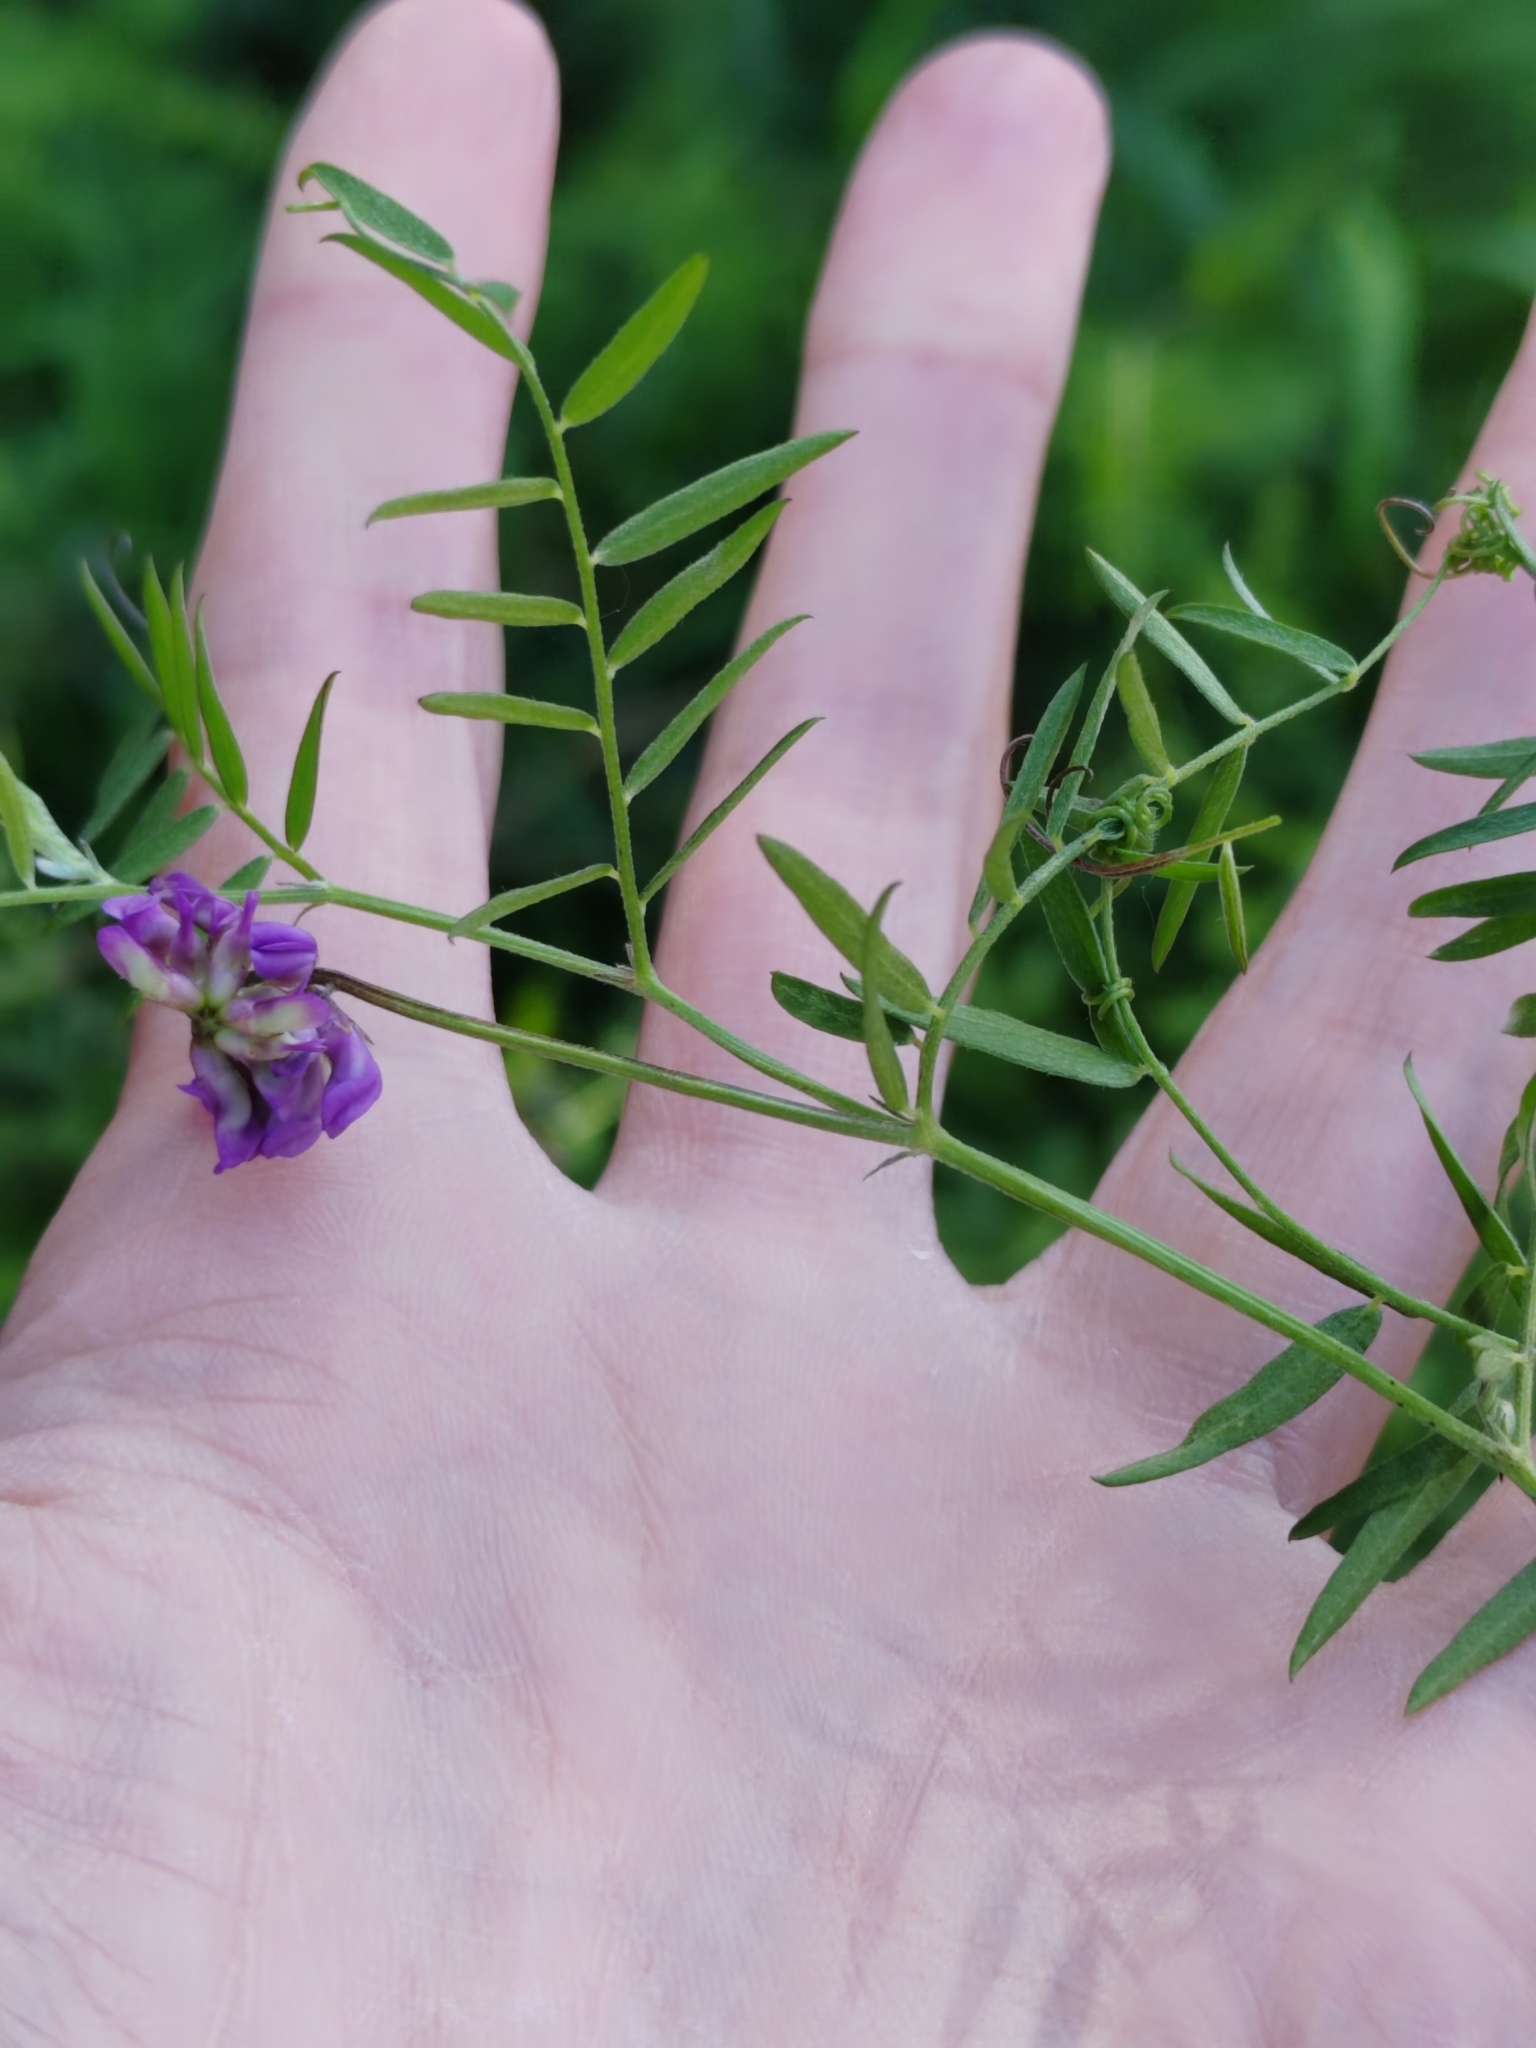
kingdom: Plantae
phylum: Tracheophyta
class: Magnoliopsida
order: Fabales
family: Fabaceae
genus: Vicia
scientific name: Vicia cracca
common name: Bird vetch
